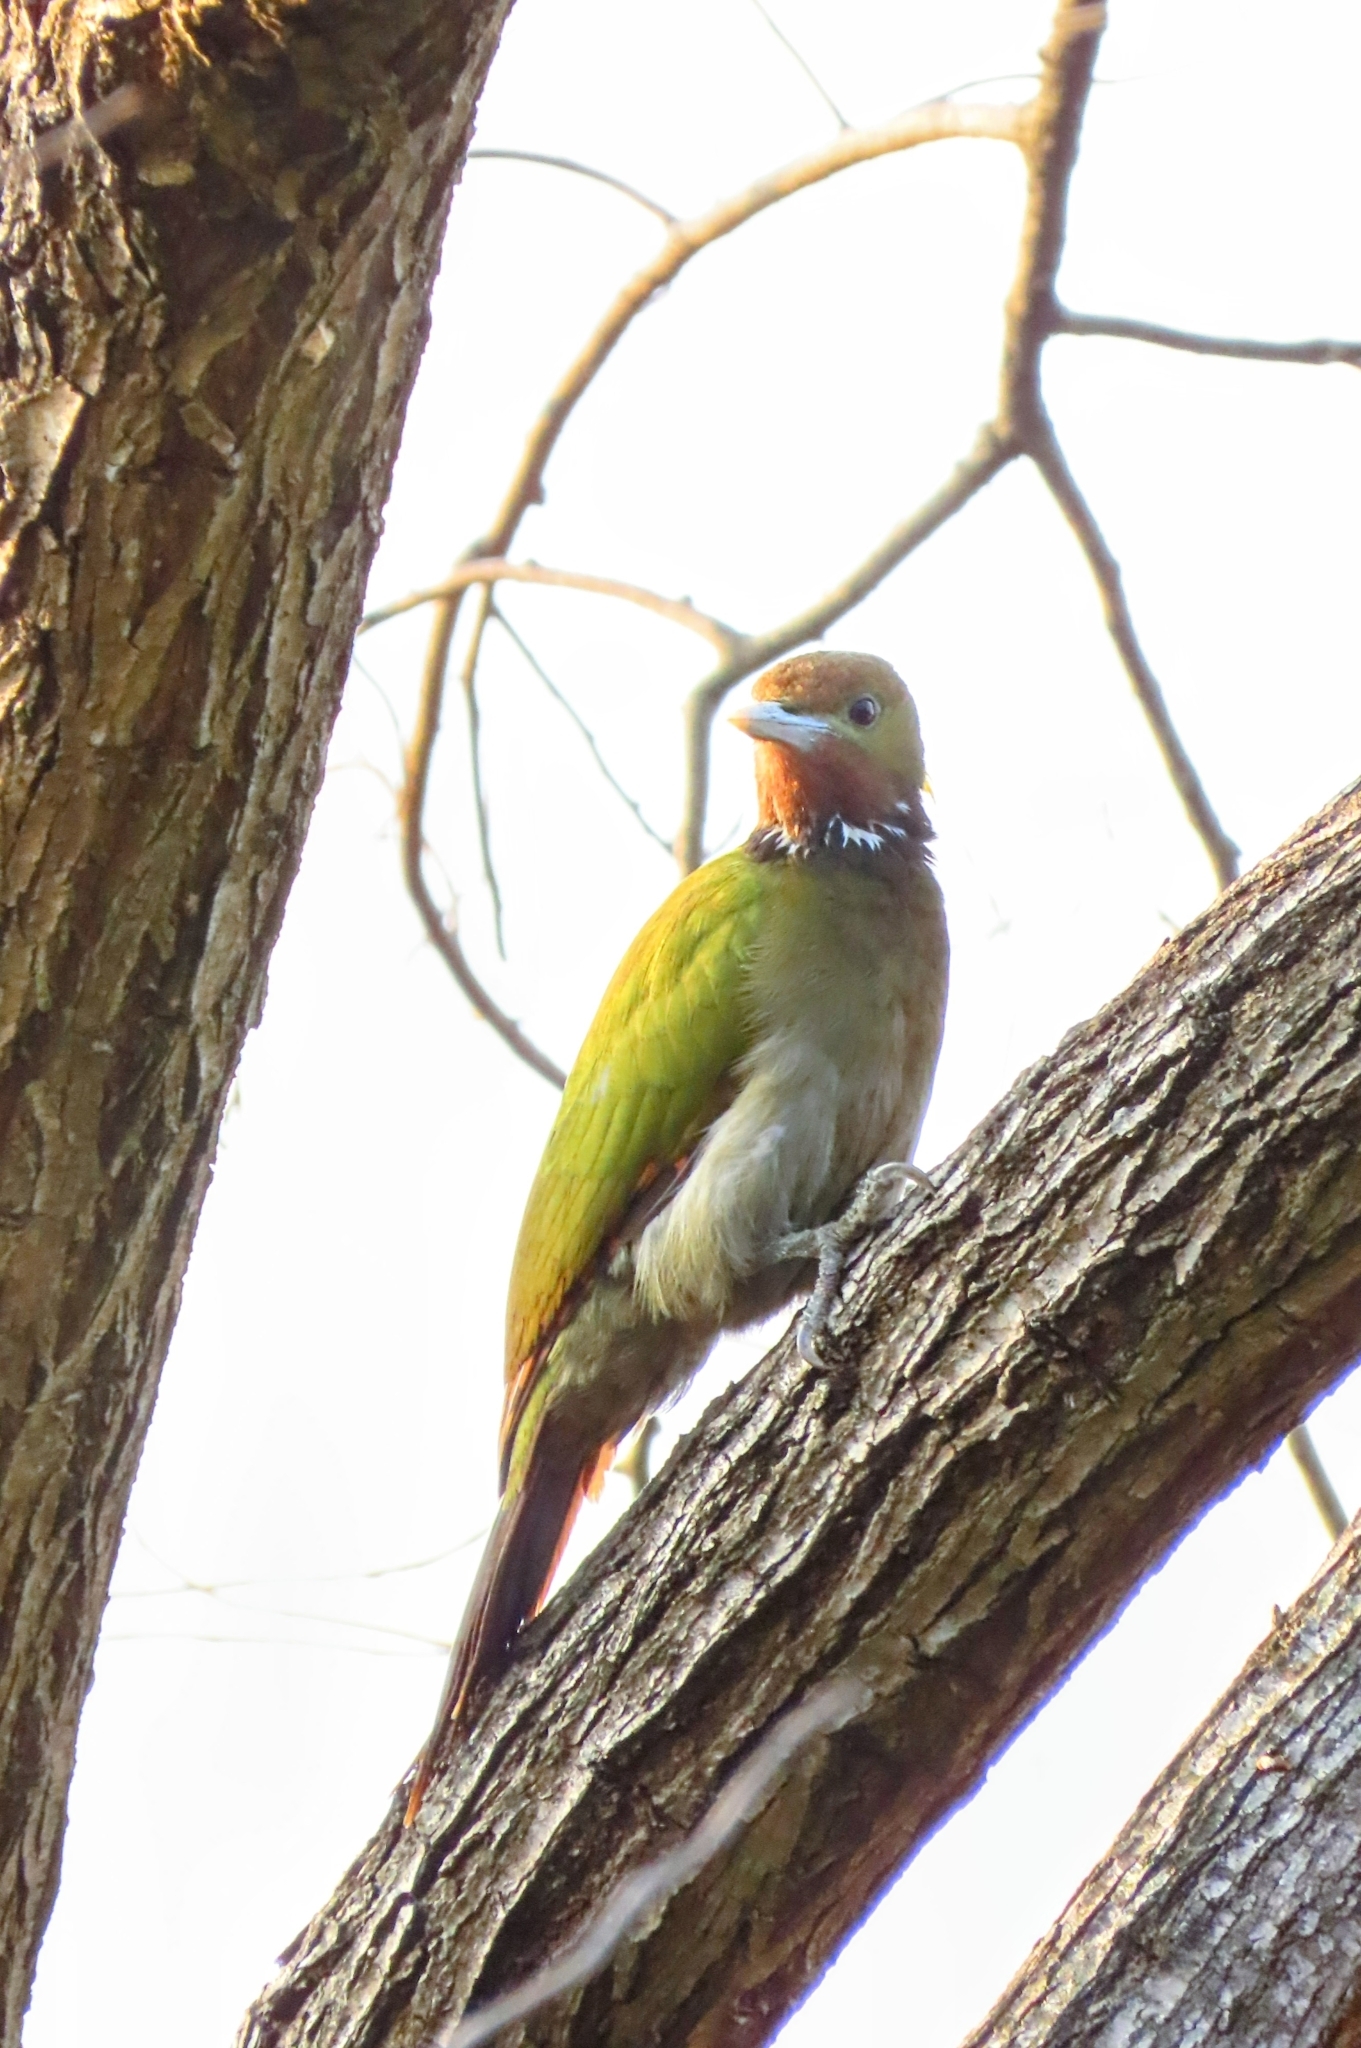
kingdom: Animalia
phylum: Chordata
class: Aves
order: Piciformes
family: Picidae
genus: Chrysophlegma
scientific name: Chrysophlegma flavinucha
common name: Greater yellownape
